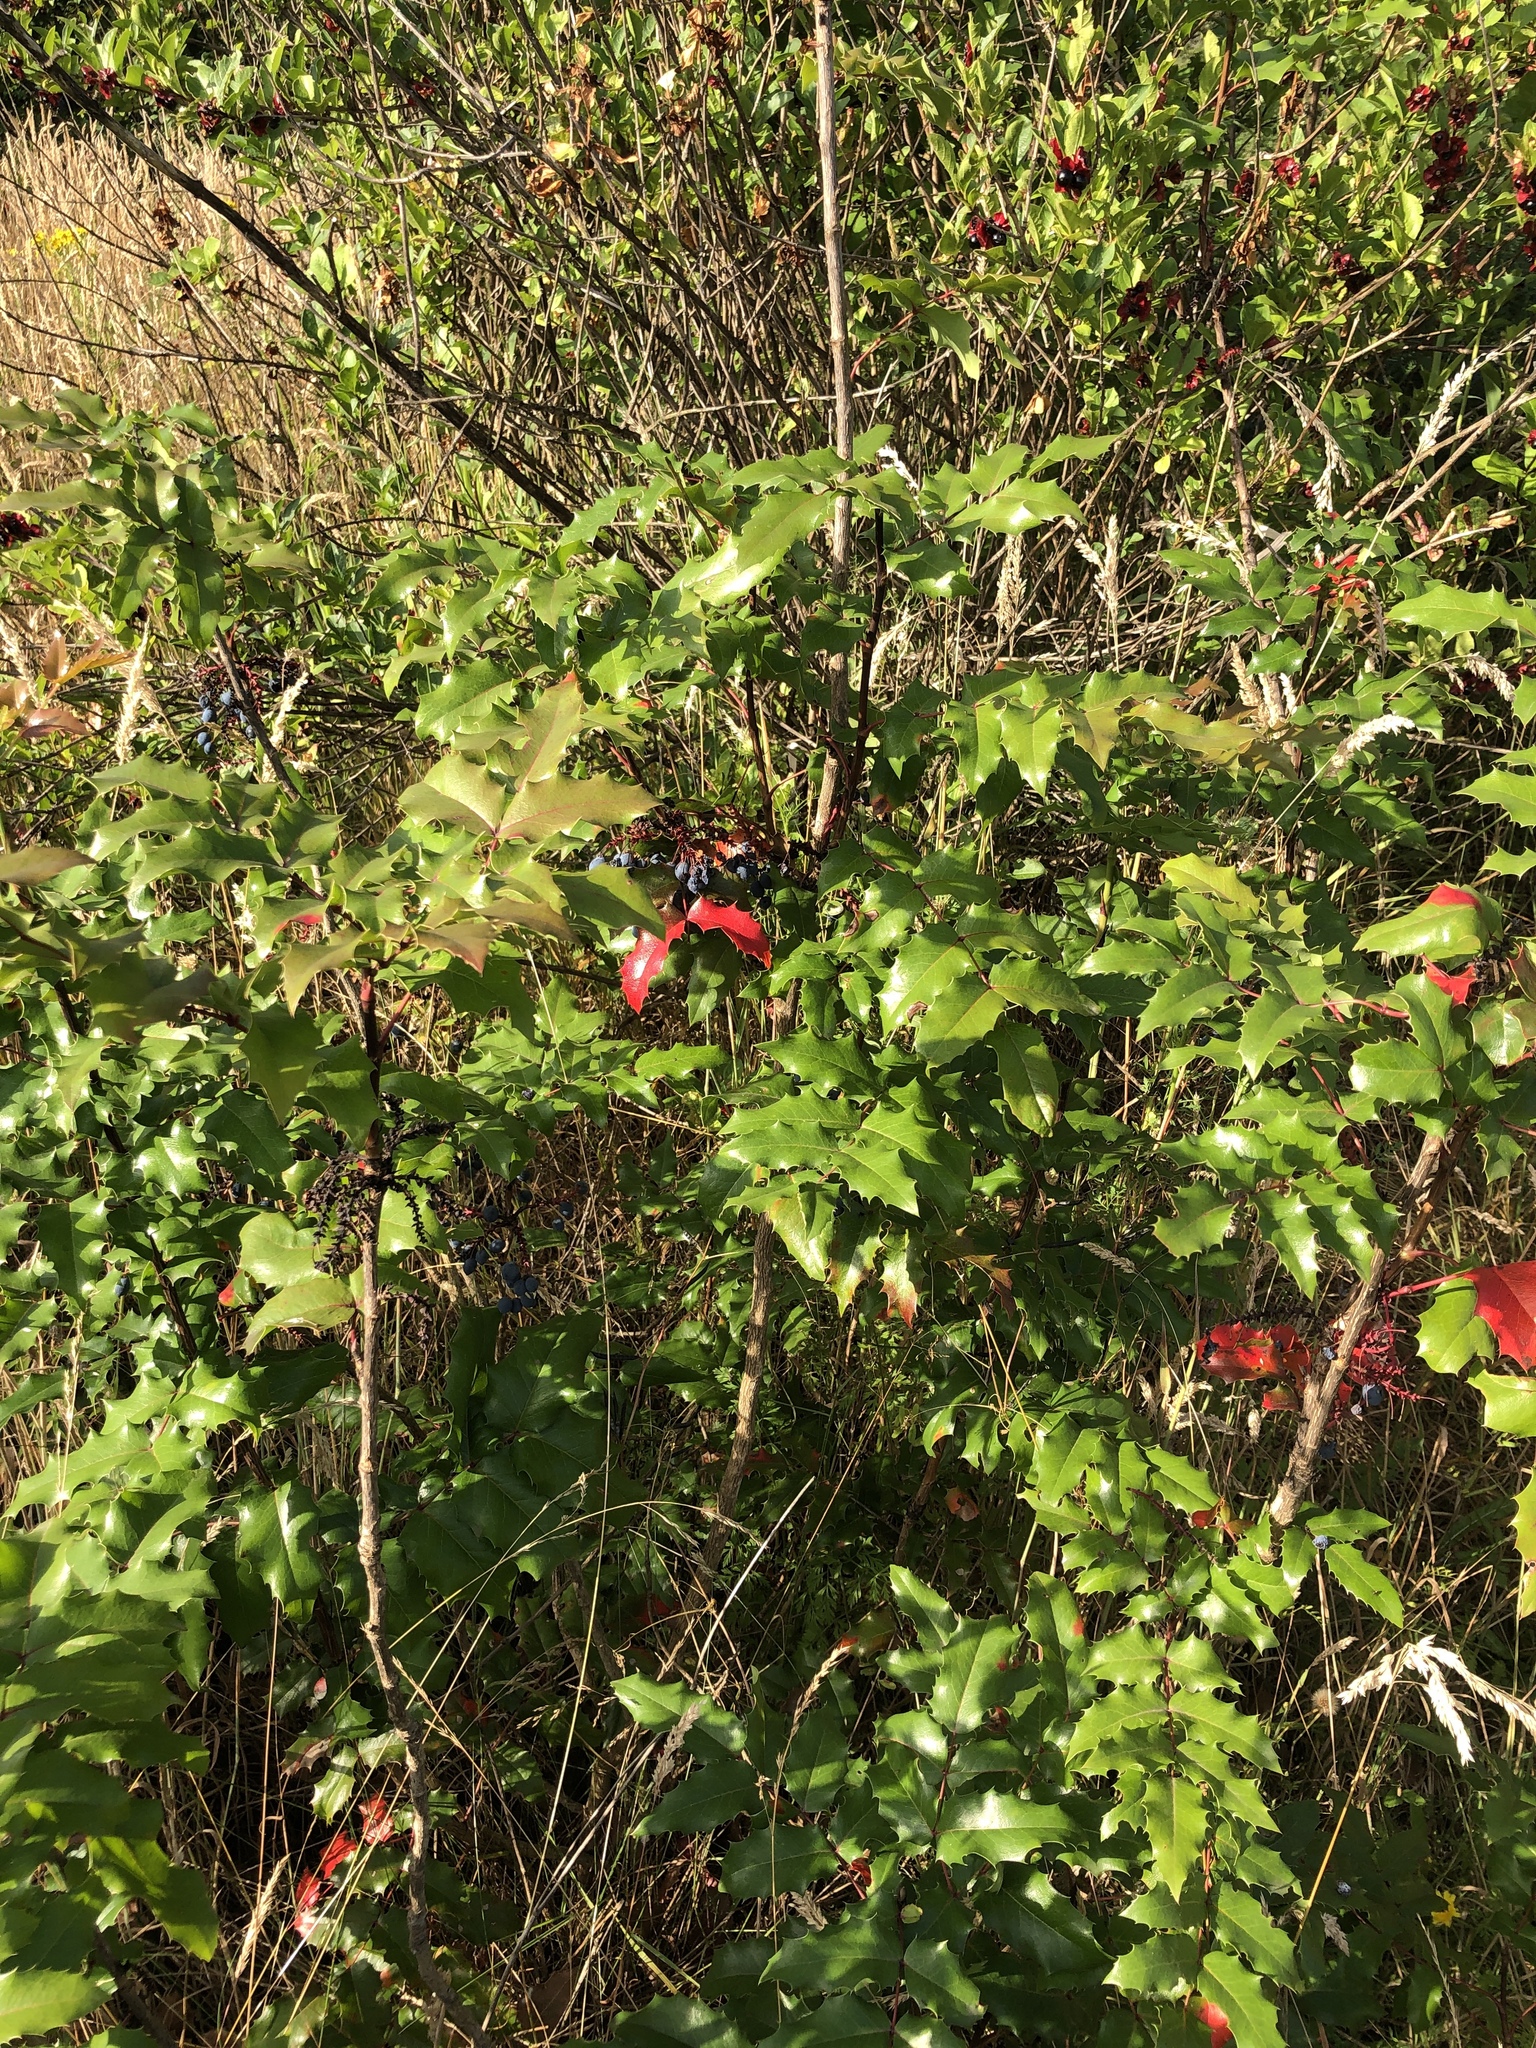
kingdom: Plantae
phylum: Tracheophyta
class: Magnoliopsida
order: Ranunculales
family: Berberidaceae
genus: Mahonia
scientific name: Mahonia aquifolium
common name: Oregon-grape
